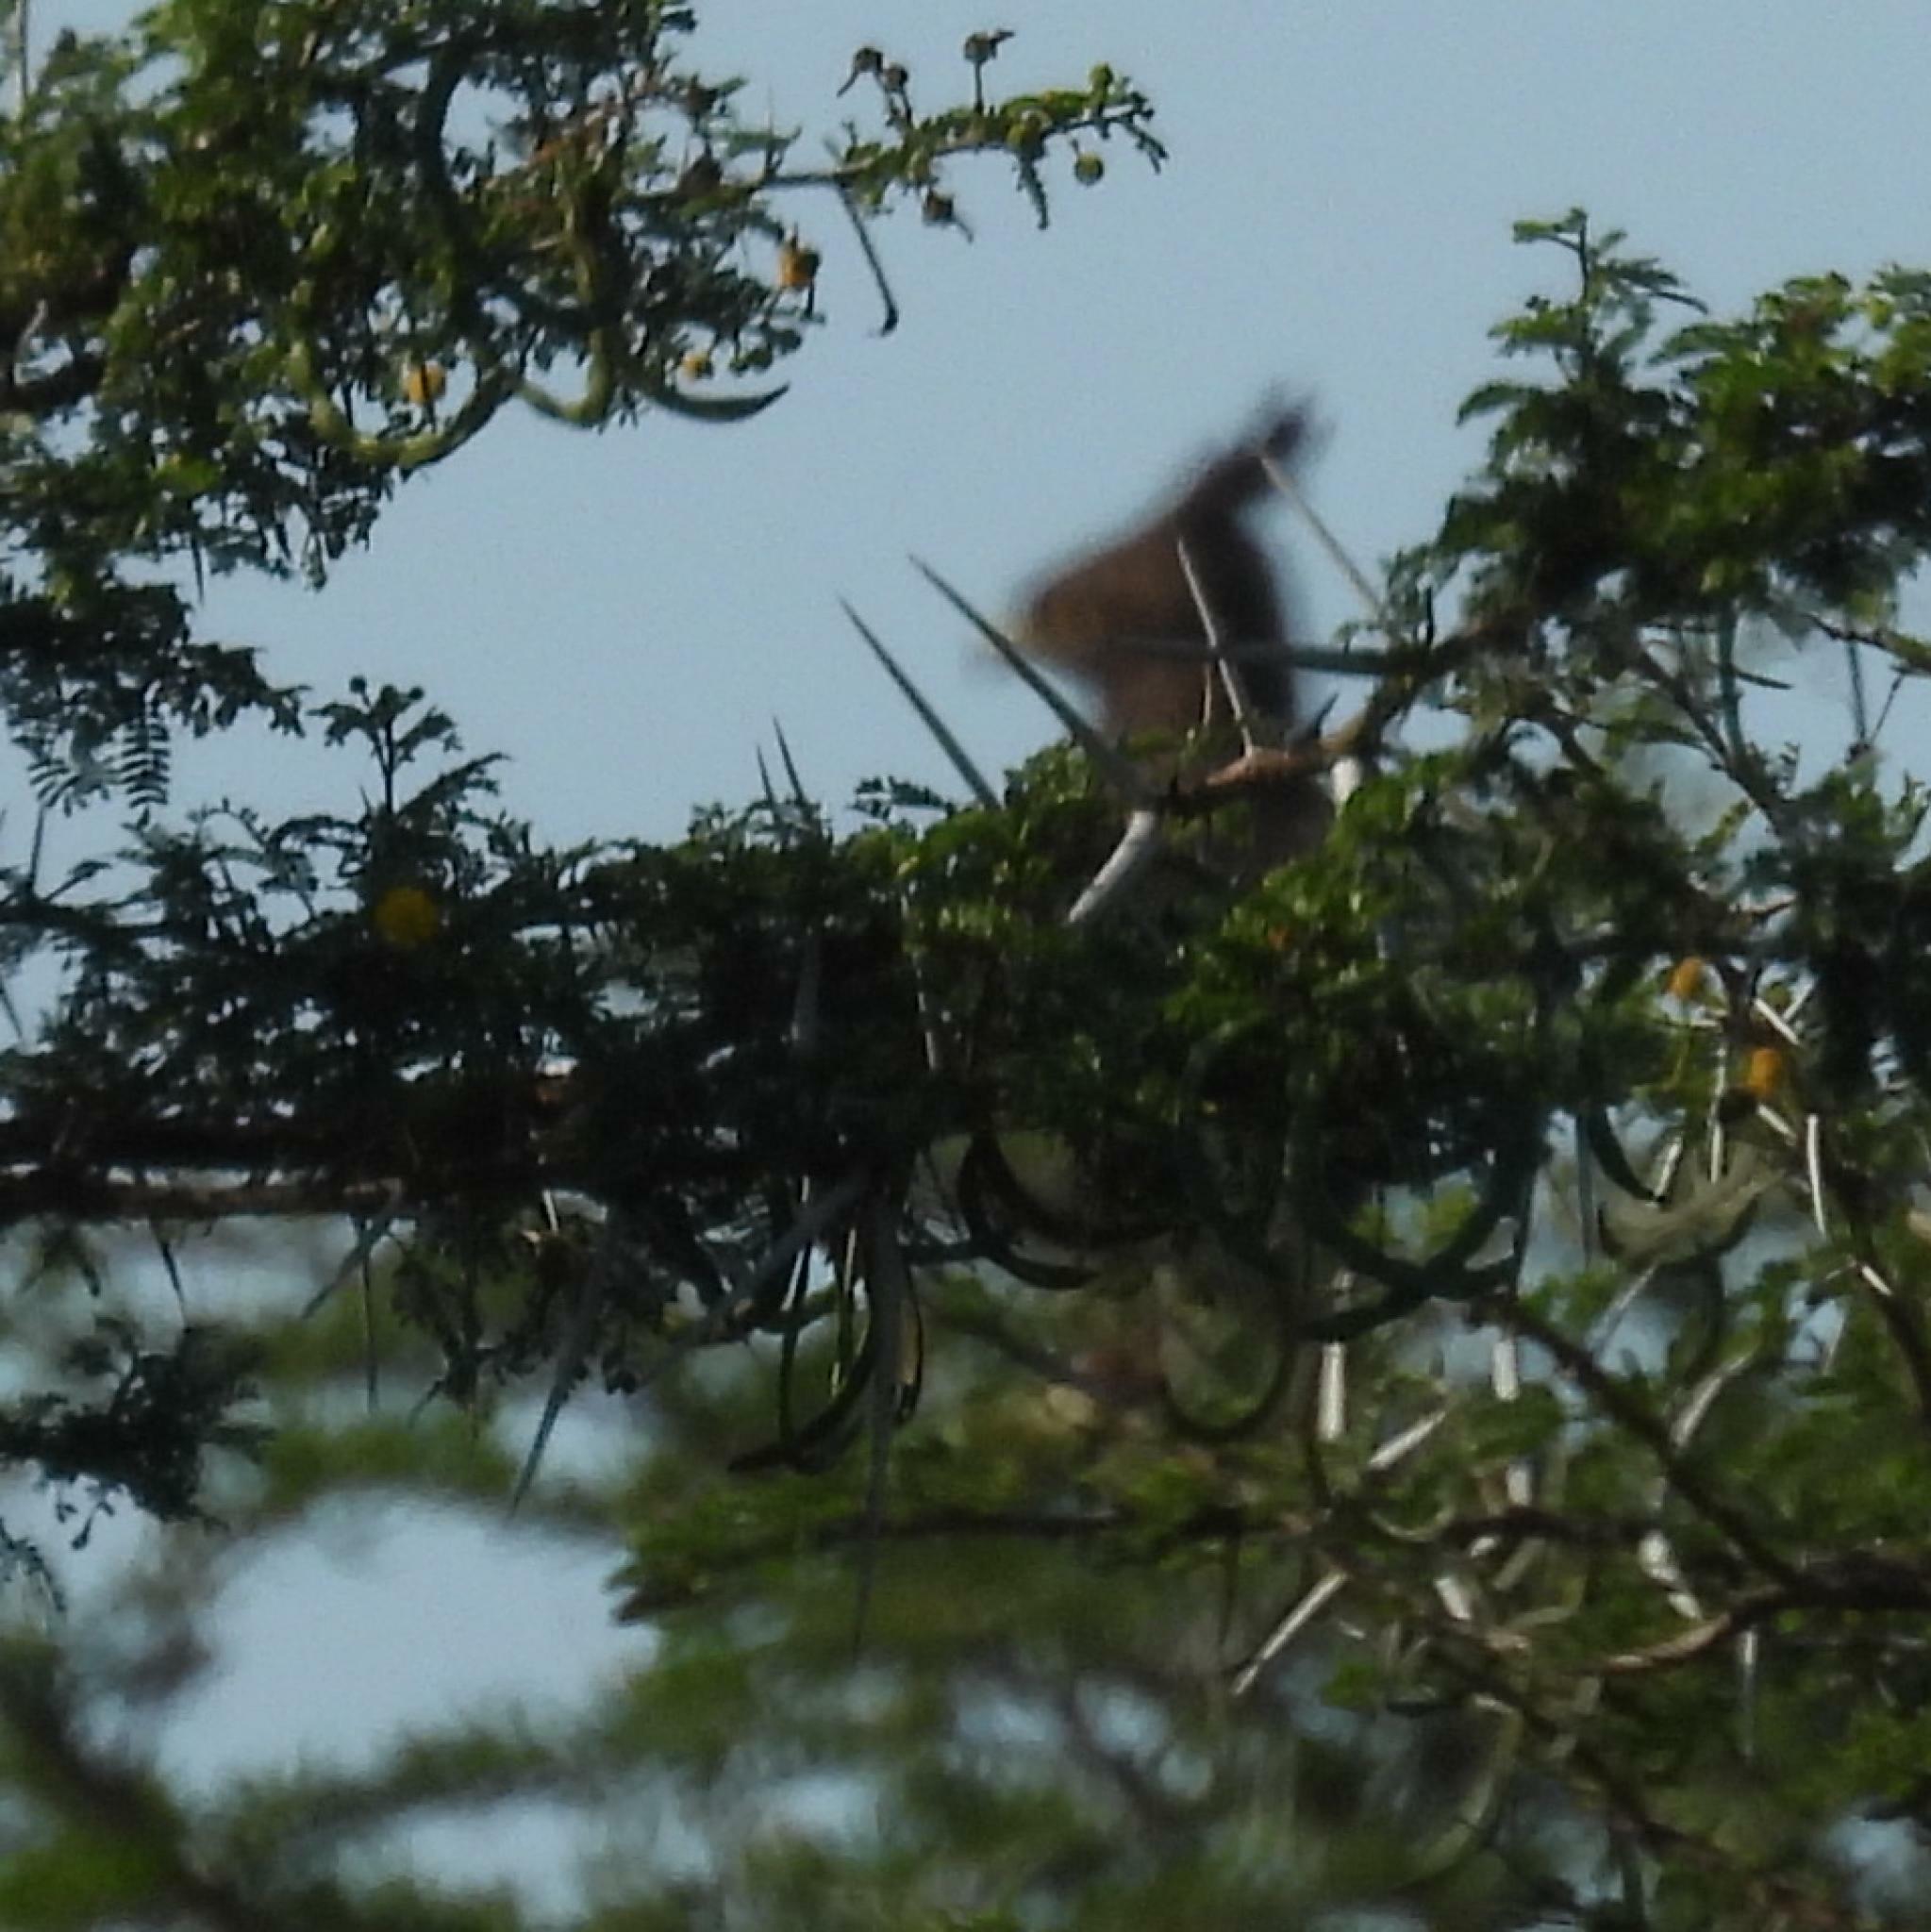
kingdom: Animalia
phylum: Chordata
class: Aves
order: Accipitriformes
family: Accipitridae
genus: Lophaetus
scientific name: Lophaetus occipitalis
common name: Long-crested eagle
